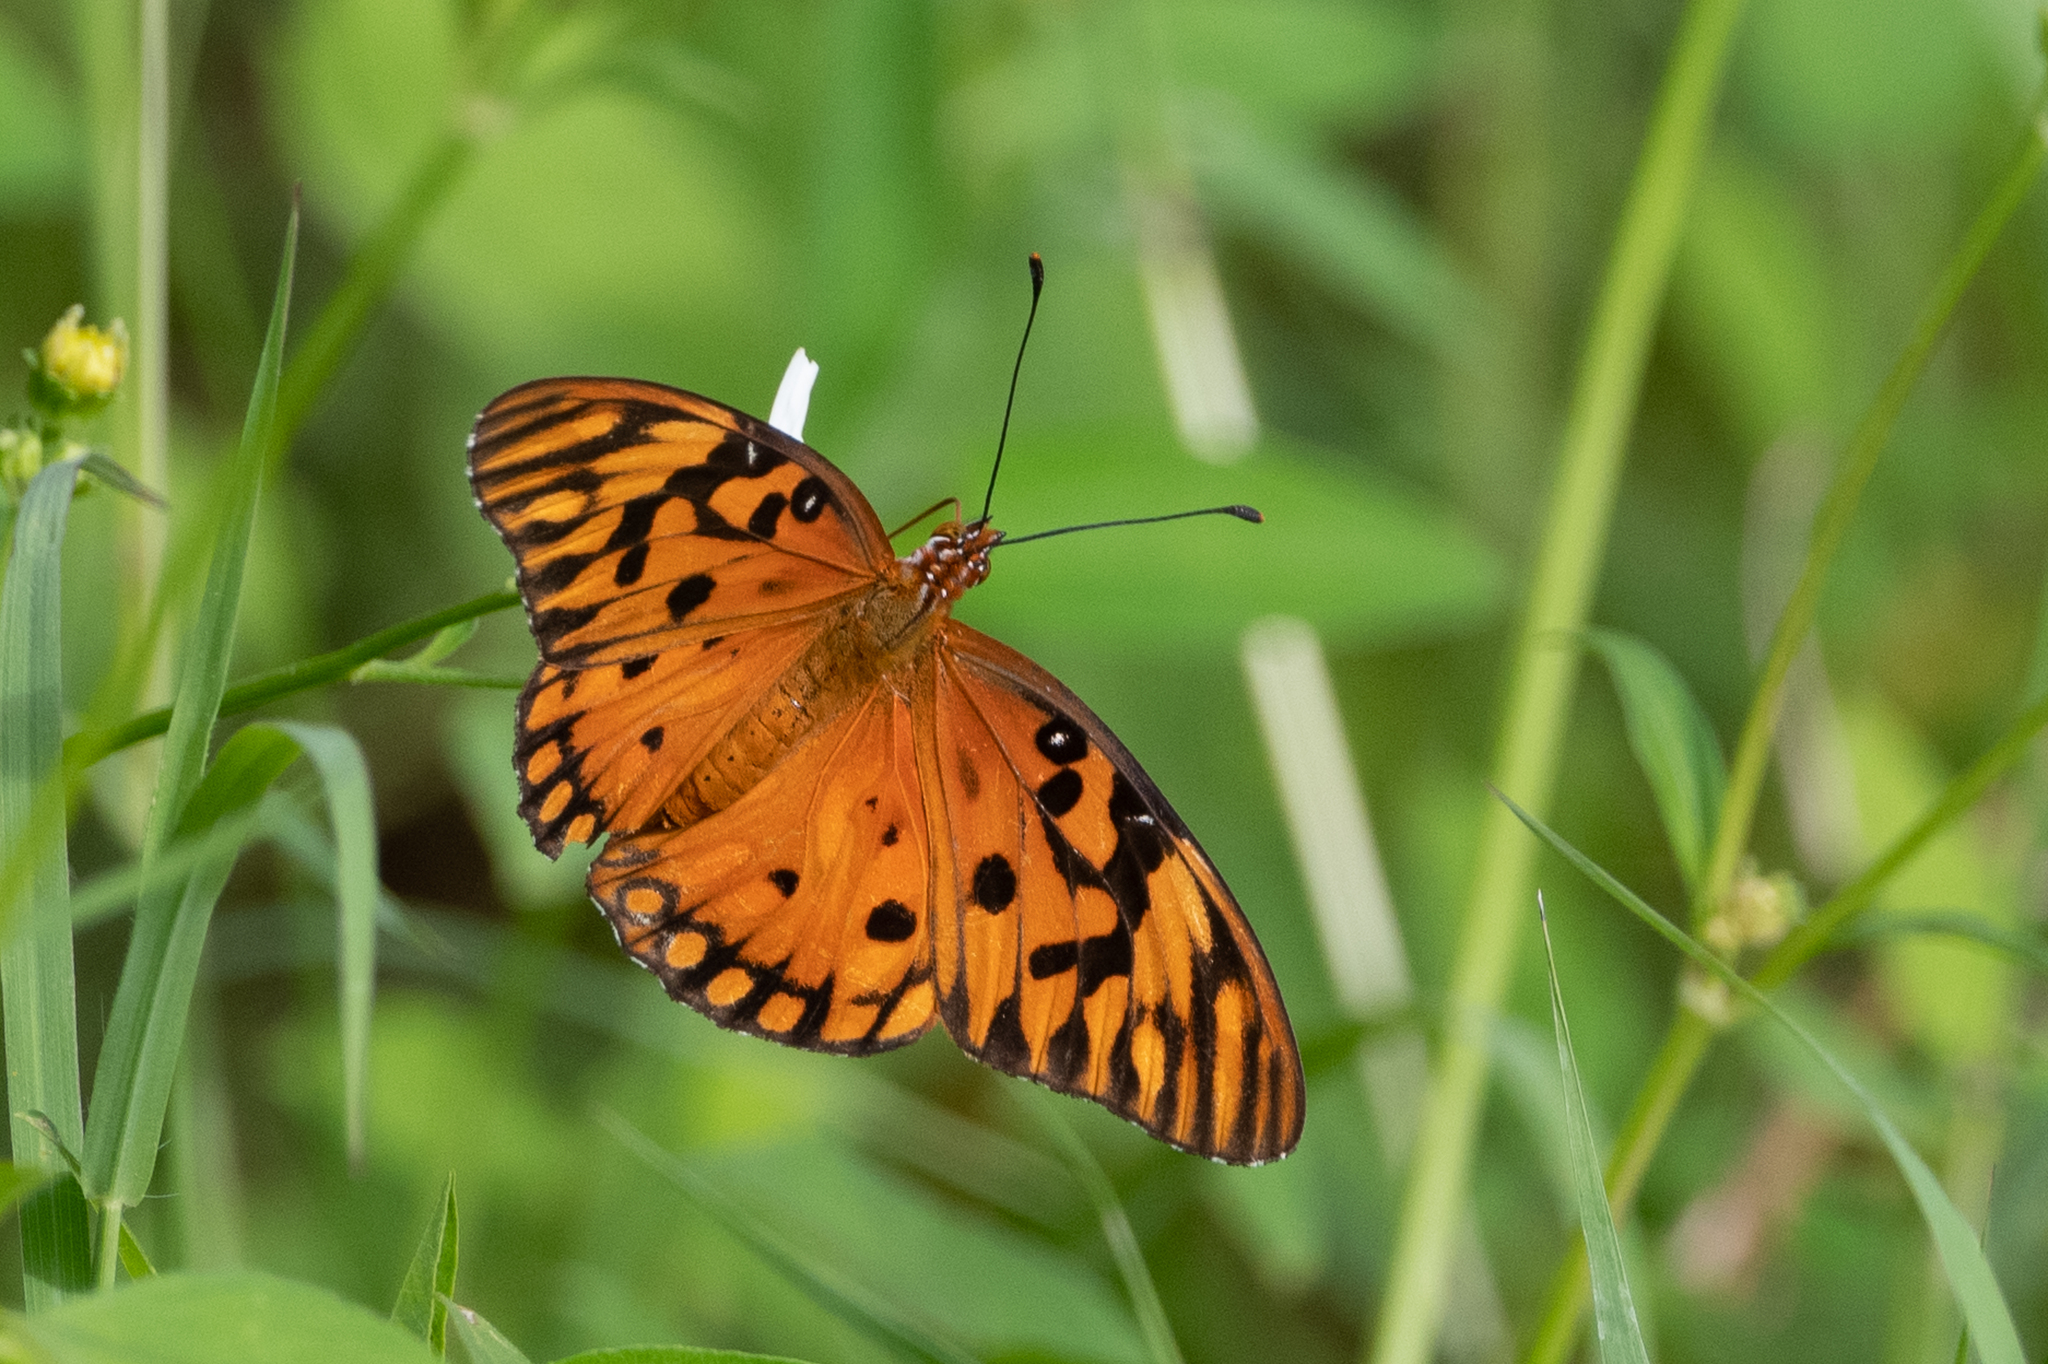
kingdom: Animalia
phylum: Arthropoda
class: Insecta
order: Lepidoptera
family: Nymphalidae
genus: Dione
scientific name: Dione vanillae
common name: Gulf fritillary
